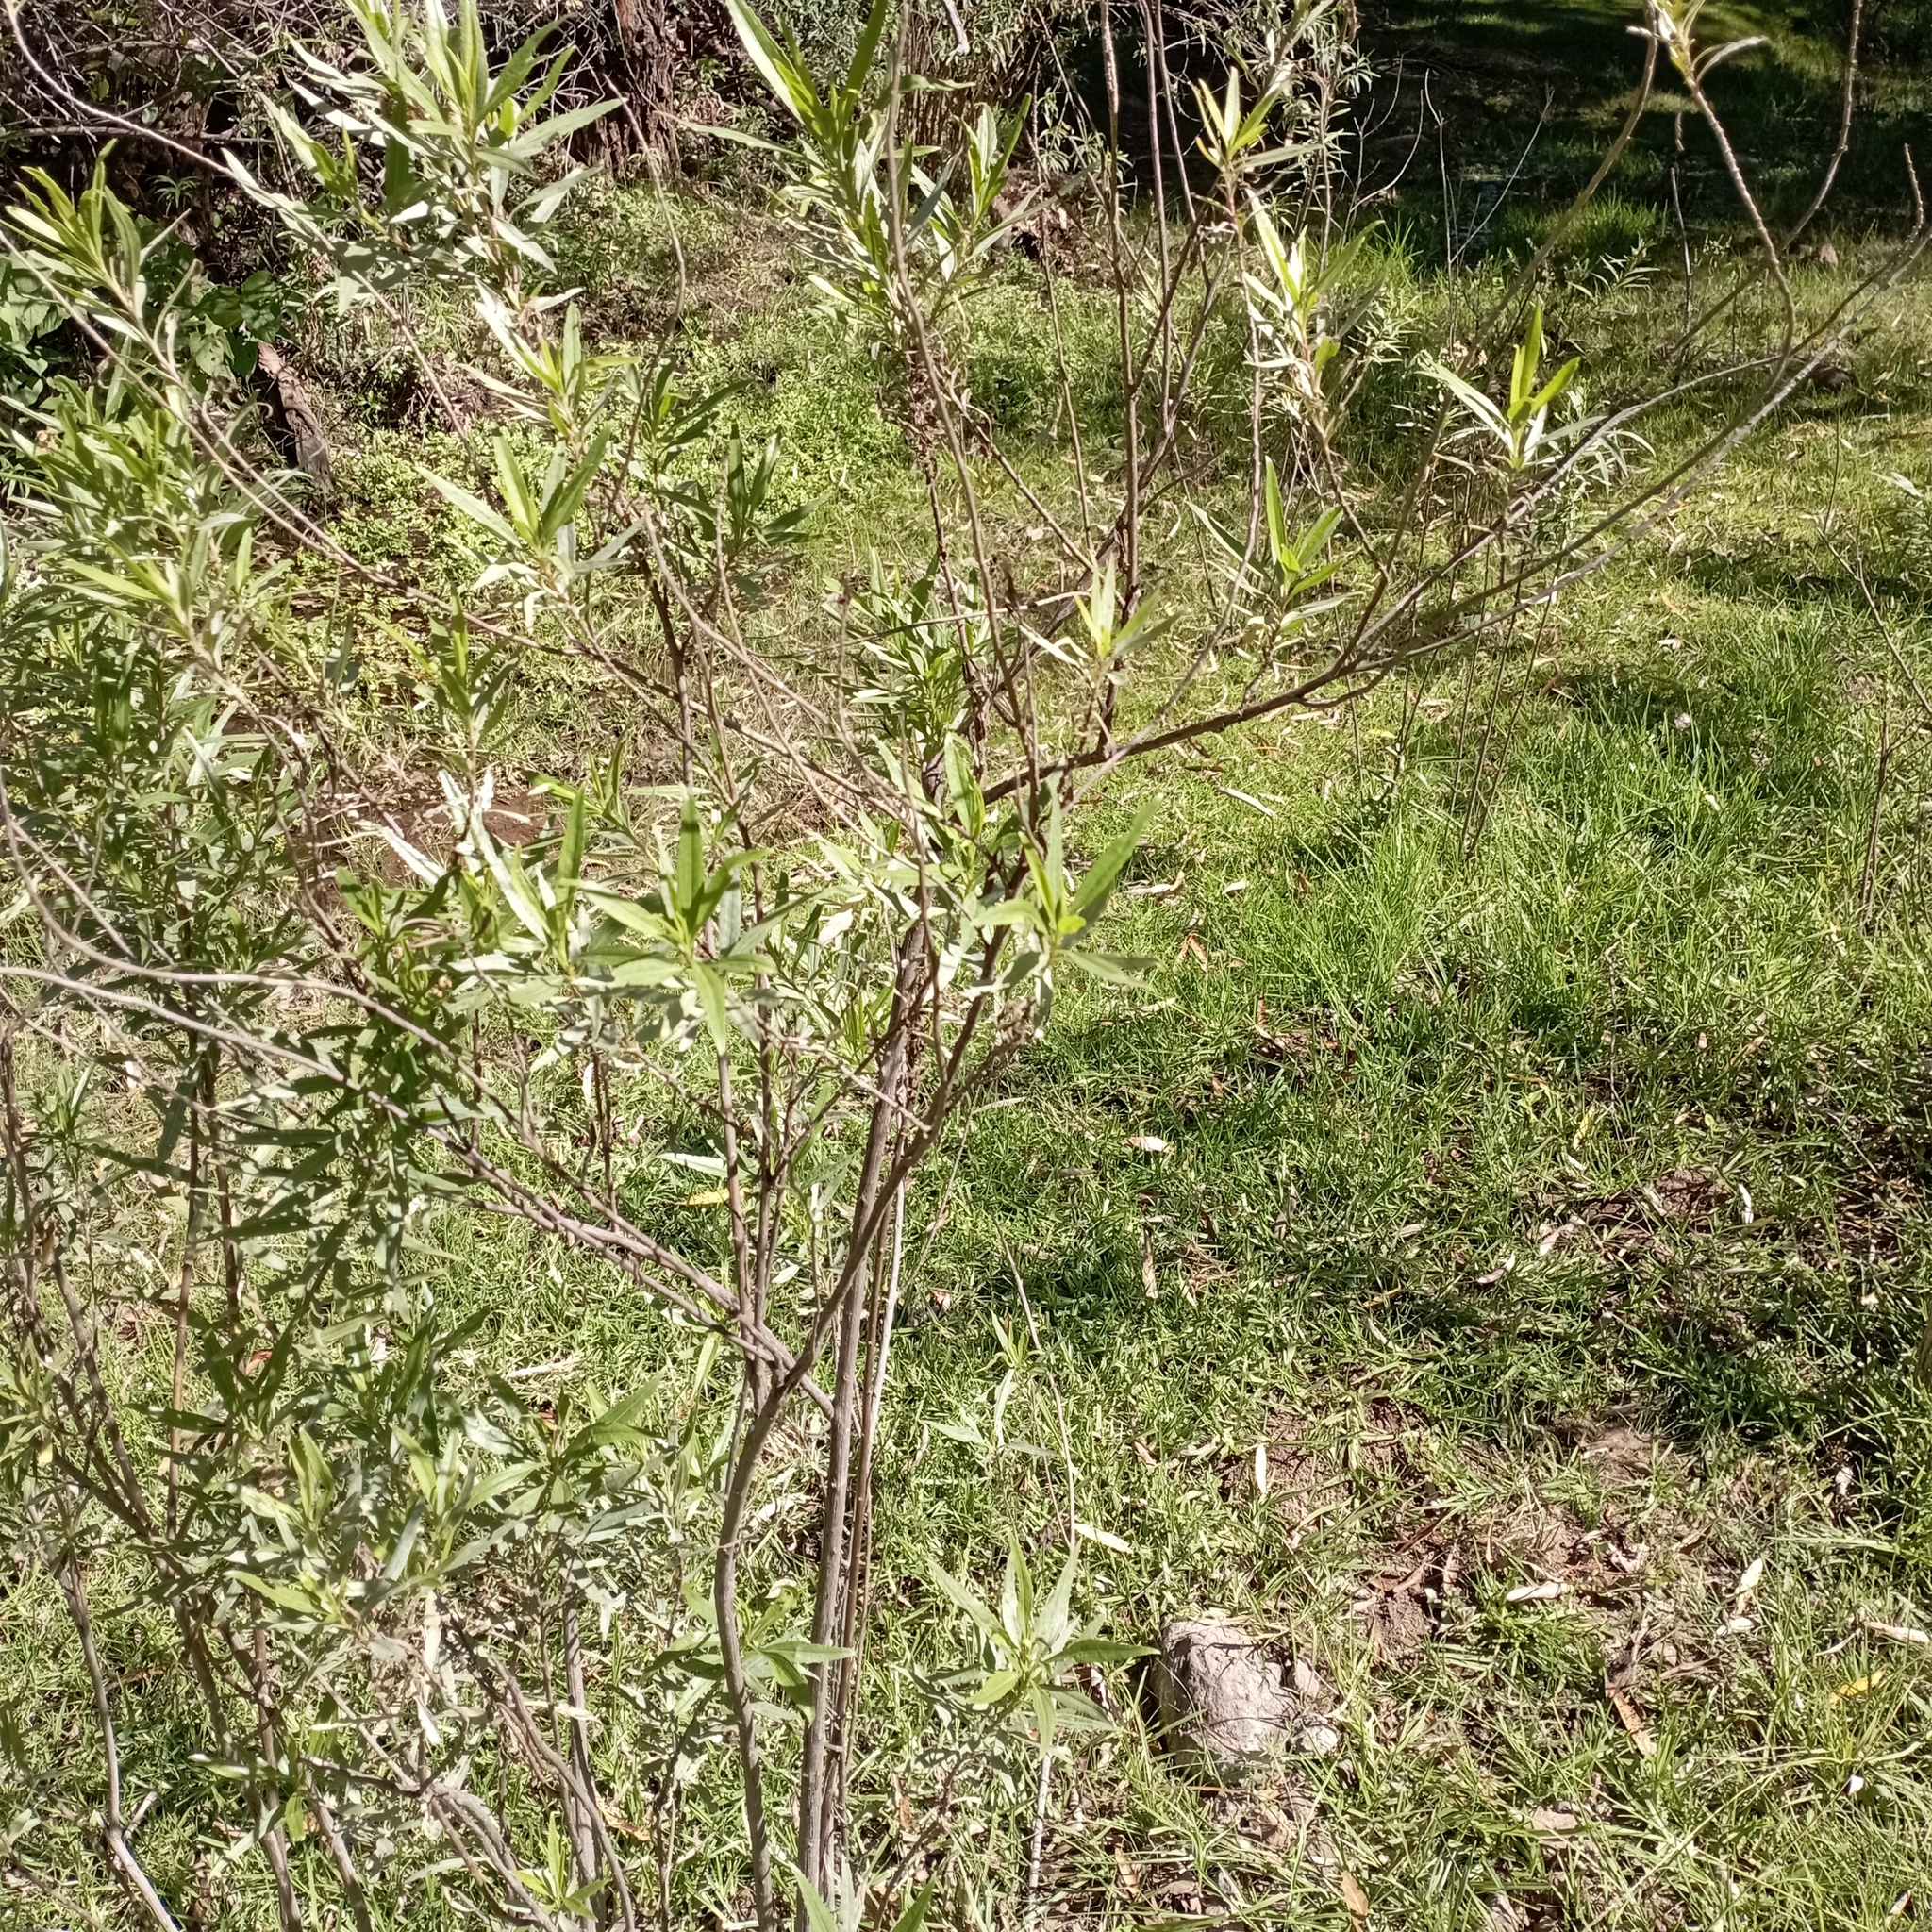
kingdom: Plantae
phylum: Tracheophyta
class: Magnoliopsida
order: Asterales
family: Asteraceae
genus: Baccharis
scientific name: Baccharis salicifolia
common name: Sticky baccharis
